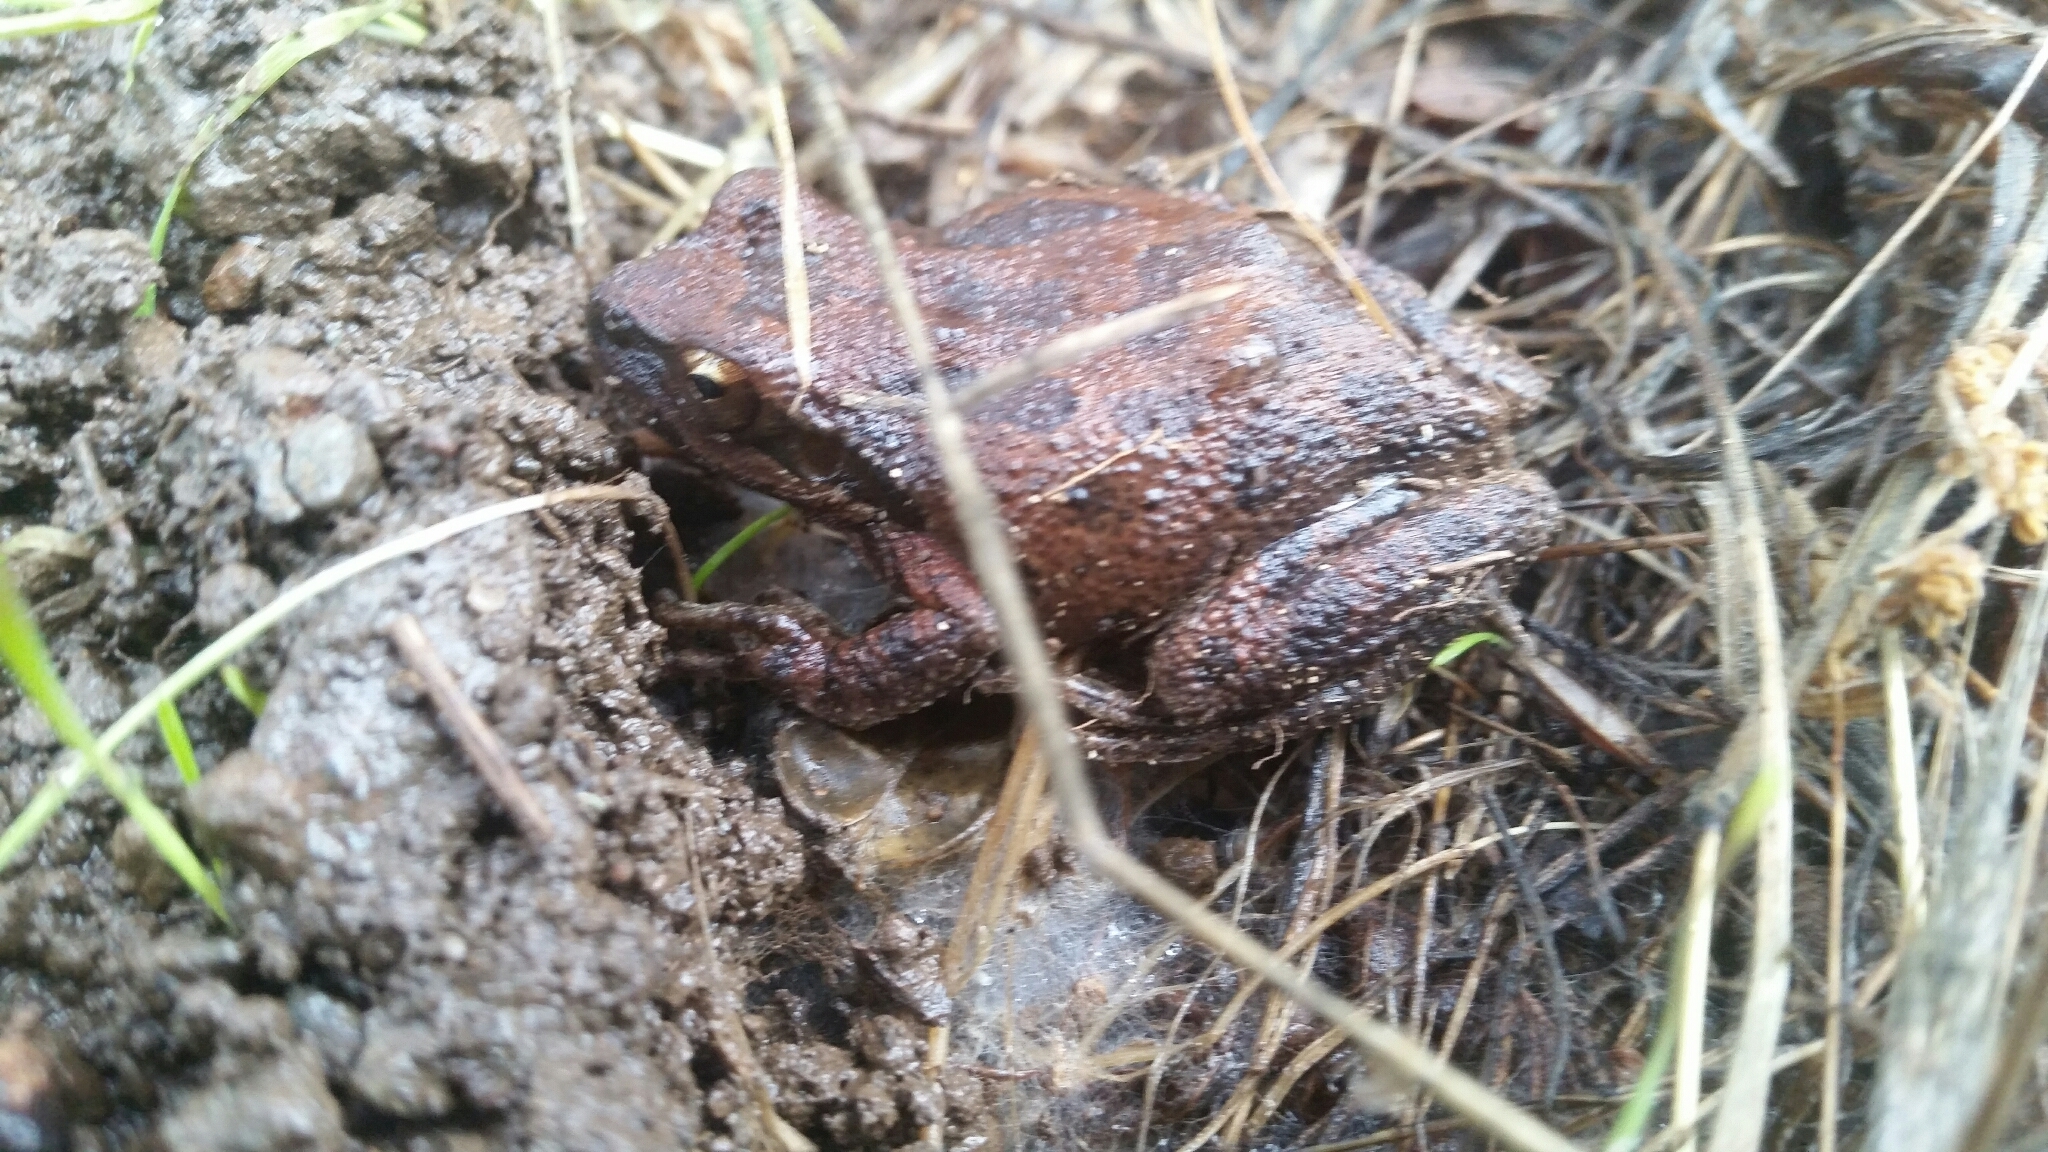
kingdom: Animalia
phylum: Chordata
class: Amphibia
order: Anura
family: Hylidae
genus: Pseudacris
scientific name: Pseudacris regilla
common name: Pacific chorus frog
